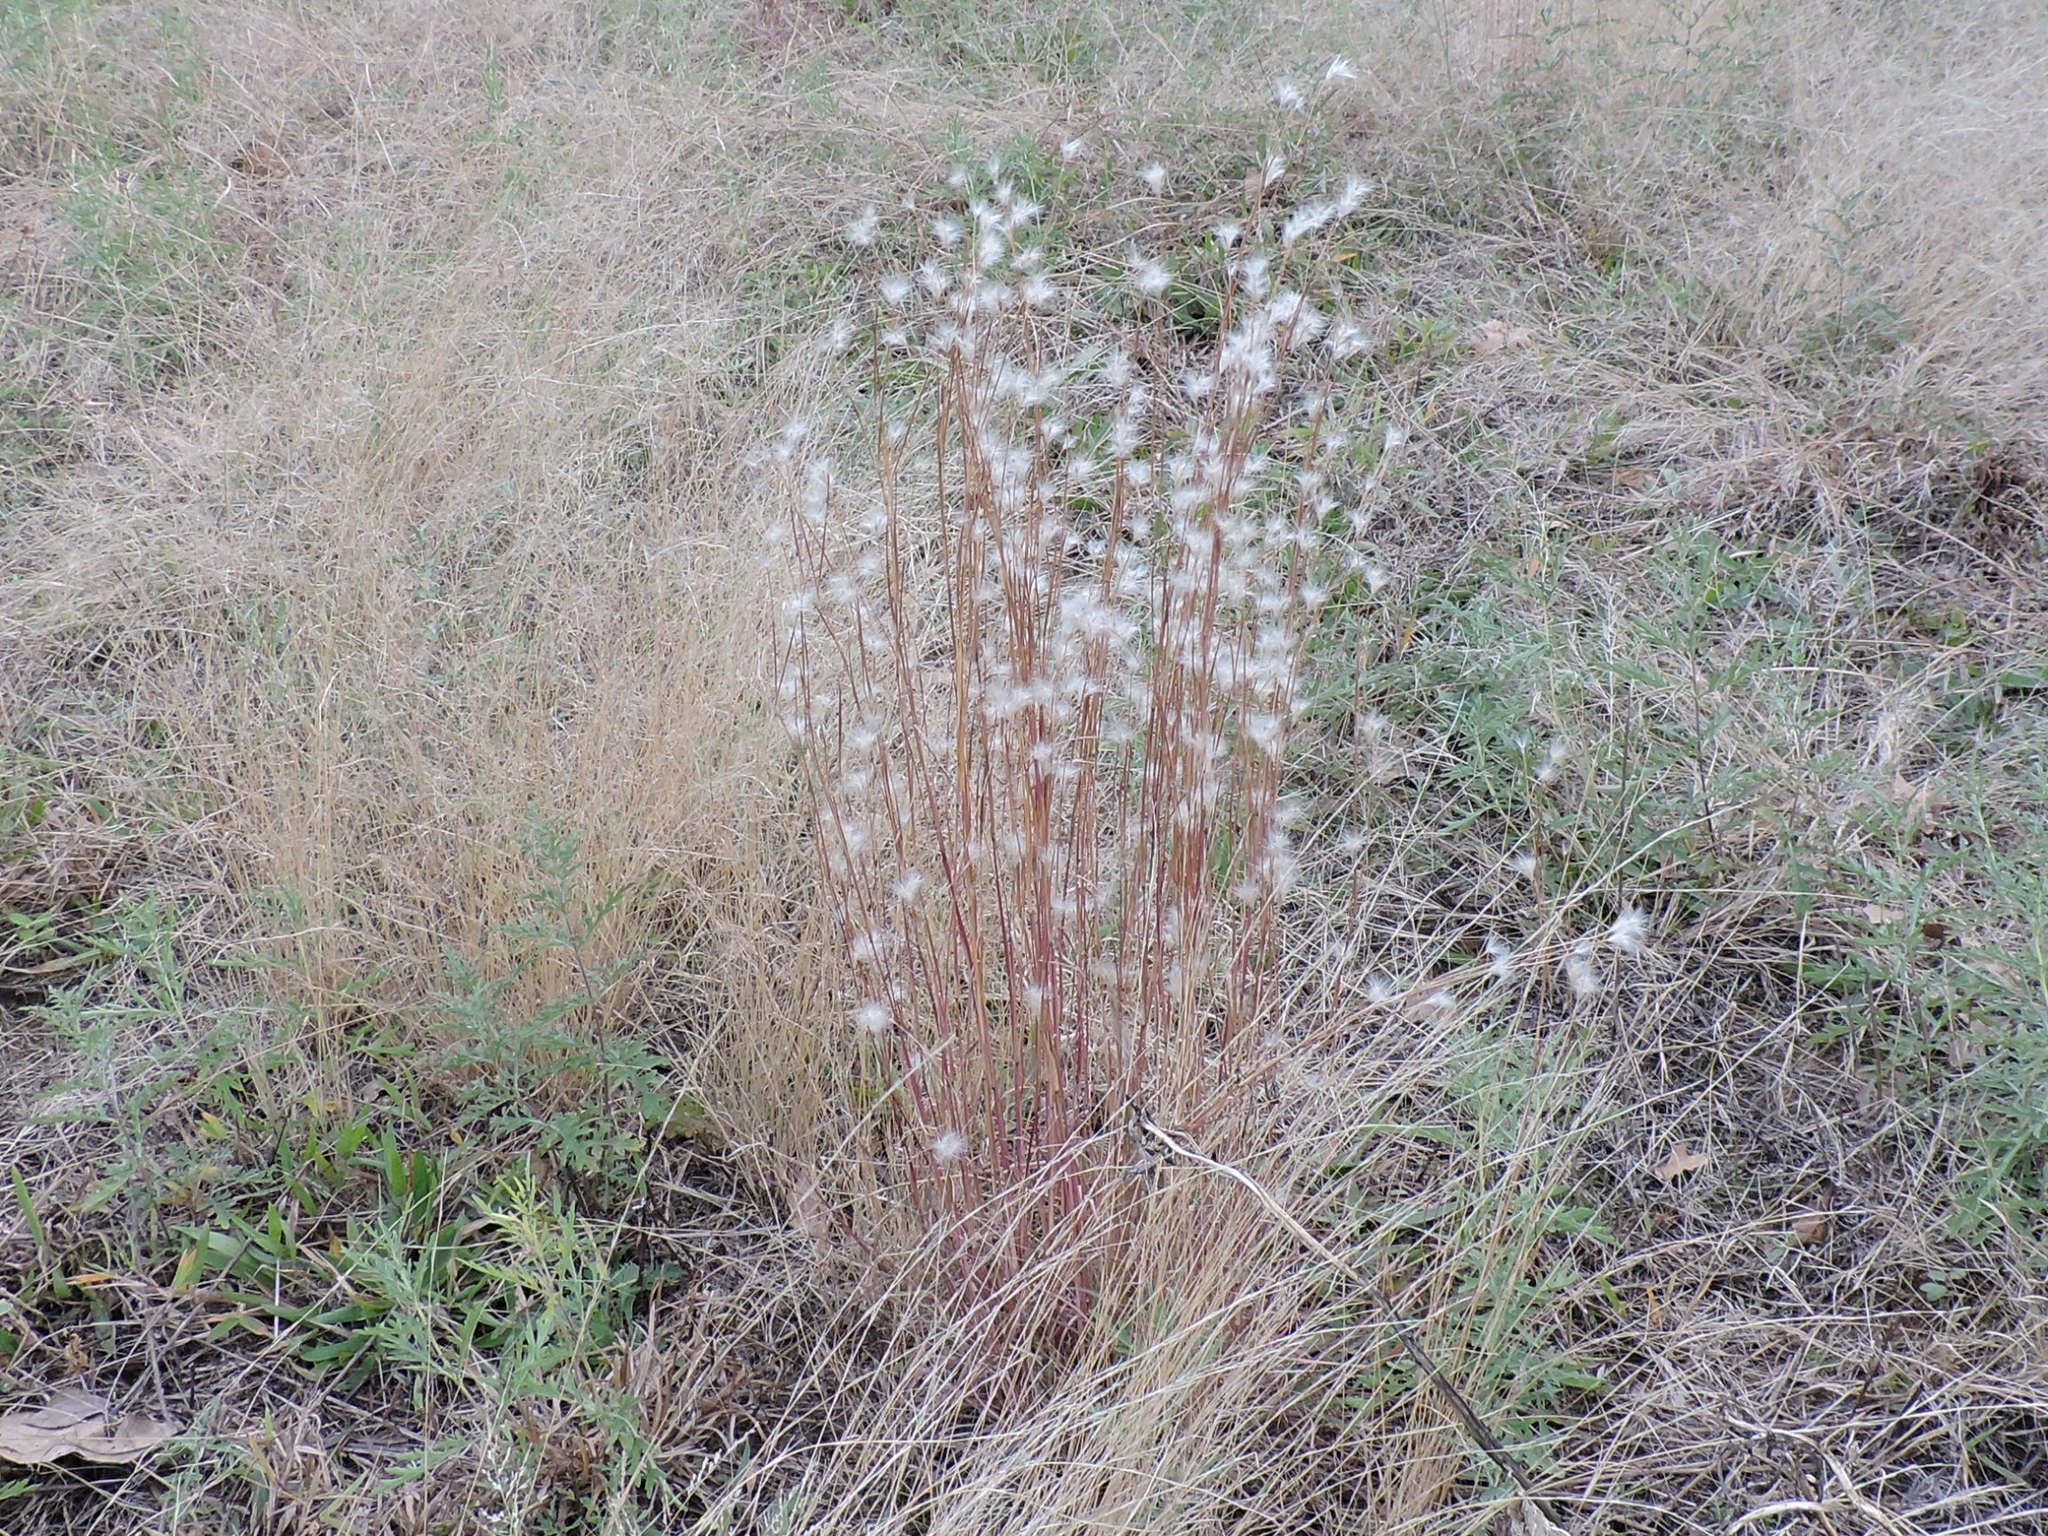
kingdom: Plantae
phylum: Tracheophyta
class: Liliopsida
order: Poales
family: Poaceae
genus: Andropogon
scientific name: Andropogon ternarius
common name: Split bluestem
